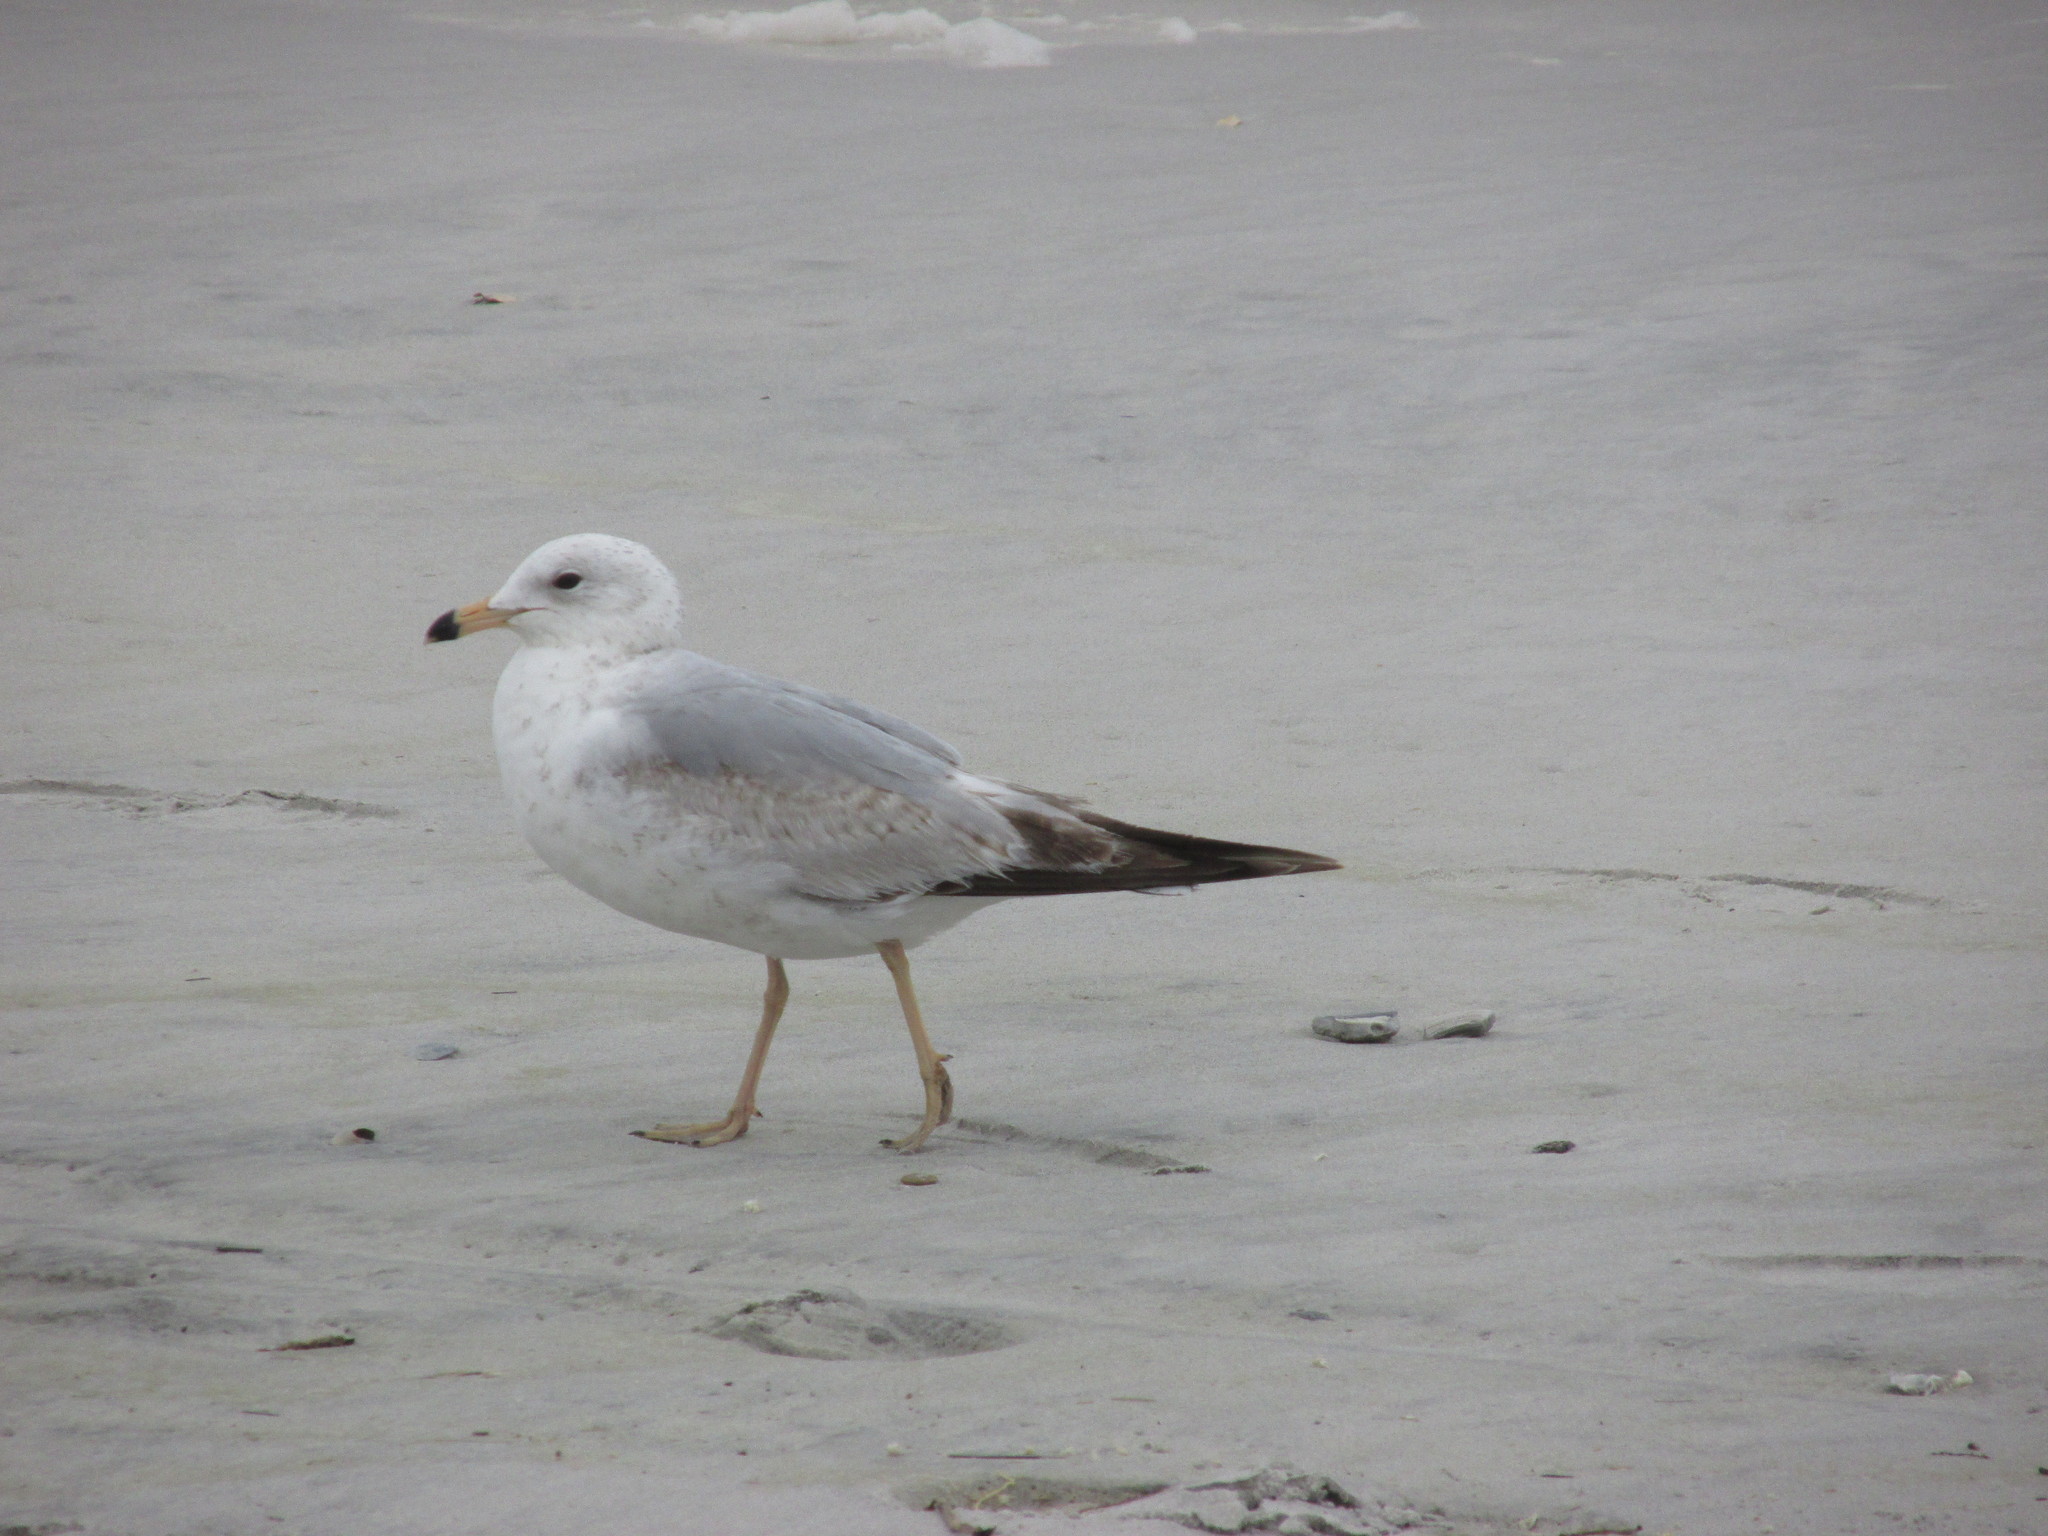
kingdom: Animalia
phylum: Chordata
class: Aves
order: Charadriiformes
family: Laridae
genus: Larus
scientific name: Larus delawarensis
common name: Ring-billed gull
